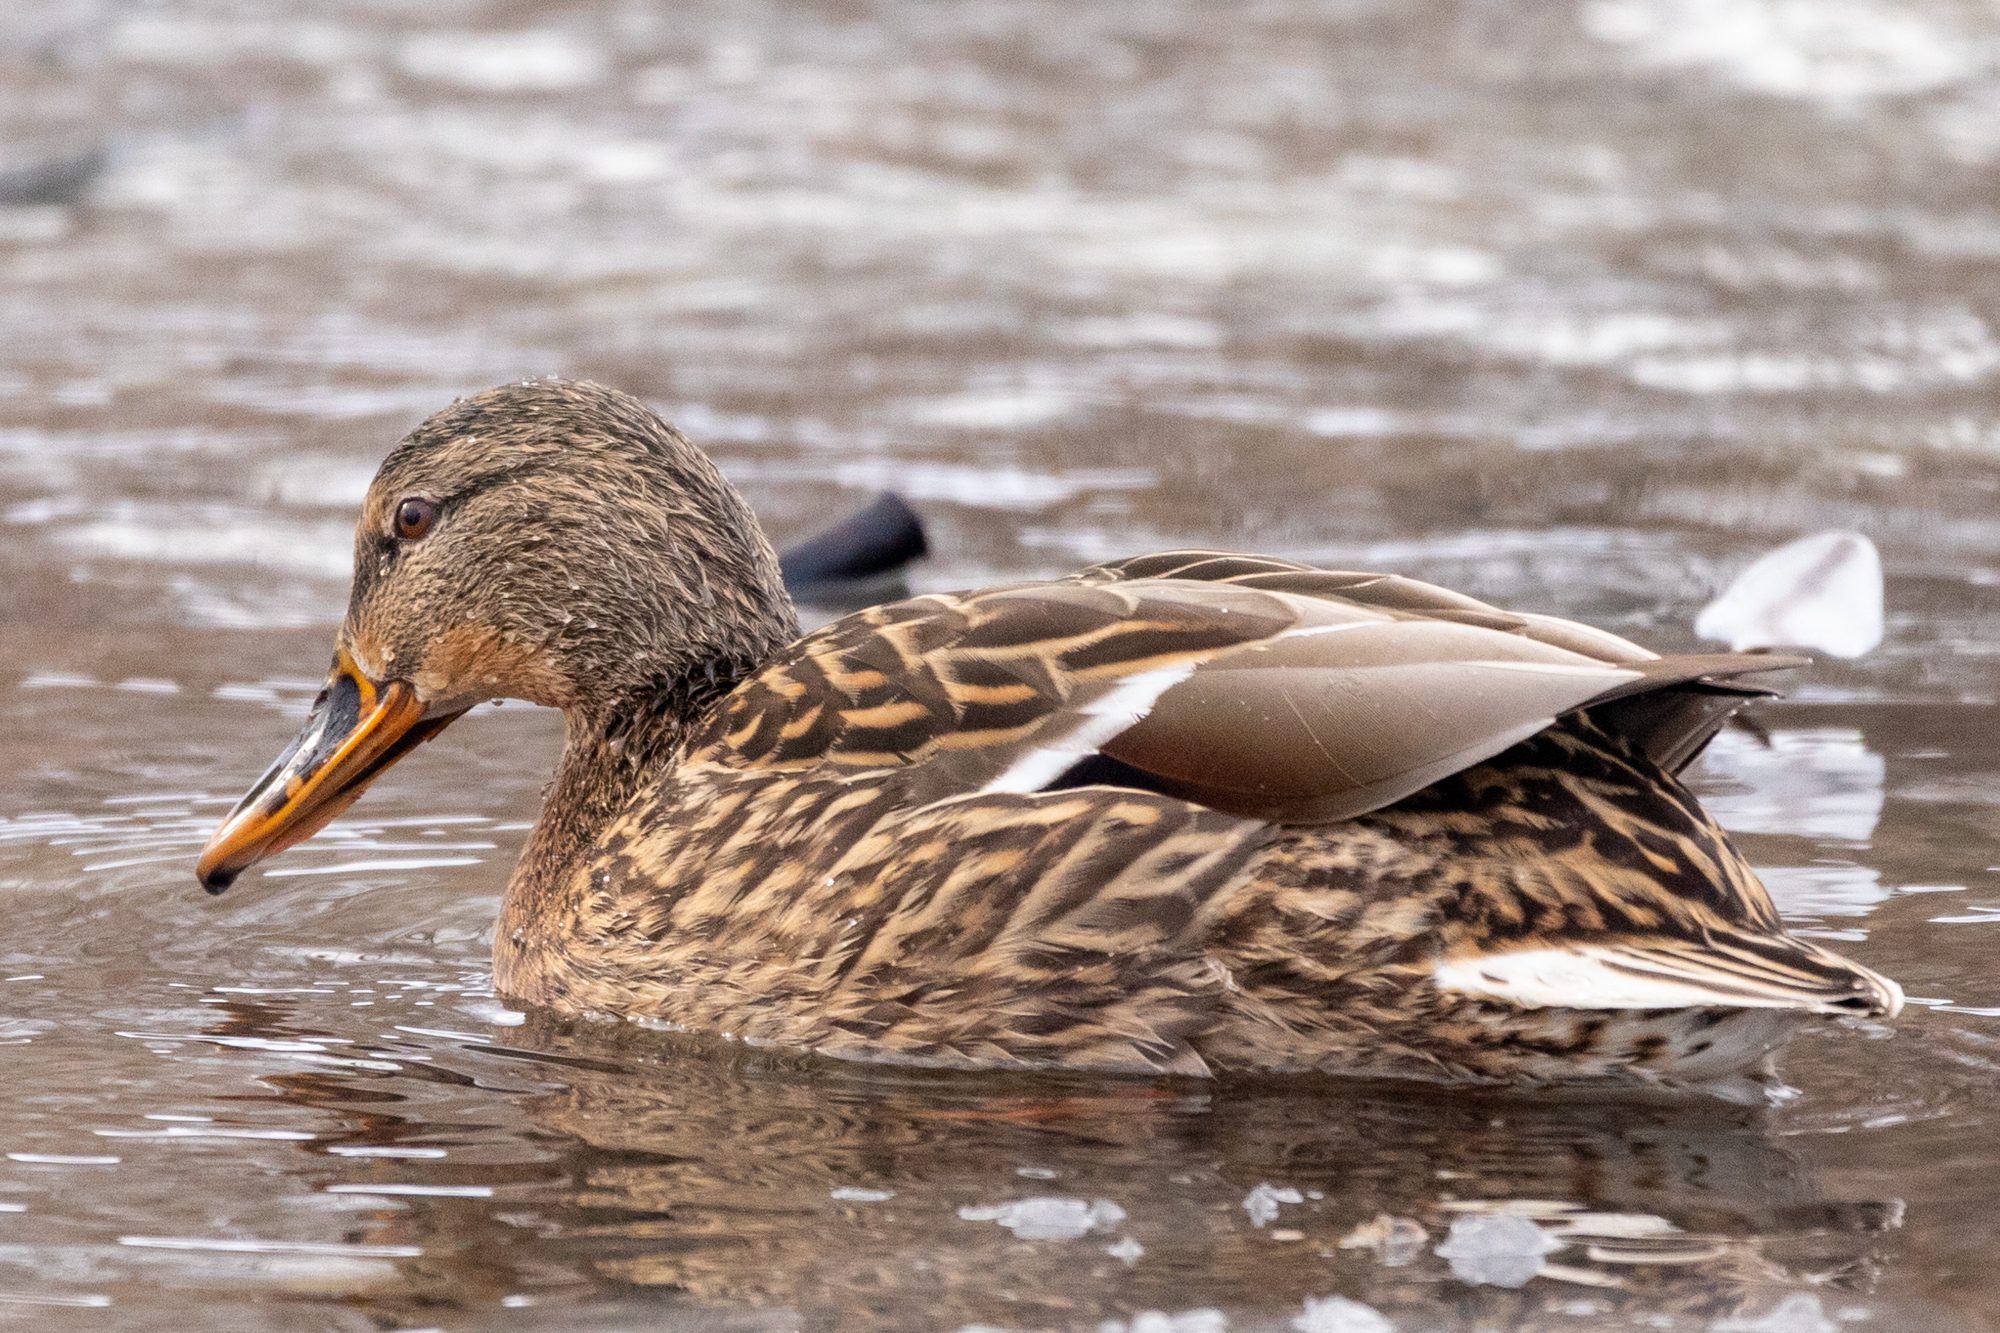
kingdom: Animalia
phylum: Chordata
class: Aves
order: Anseriformes
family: Anatidae
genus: Anas
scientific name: Anas platyrhynchos
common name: Mallard
